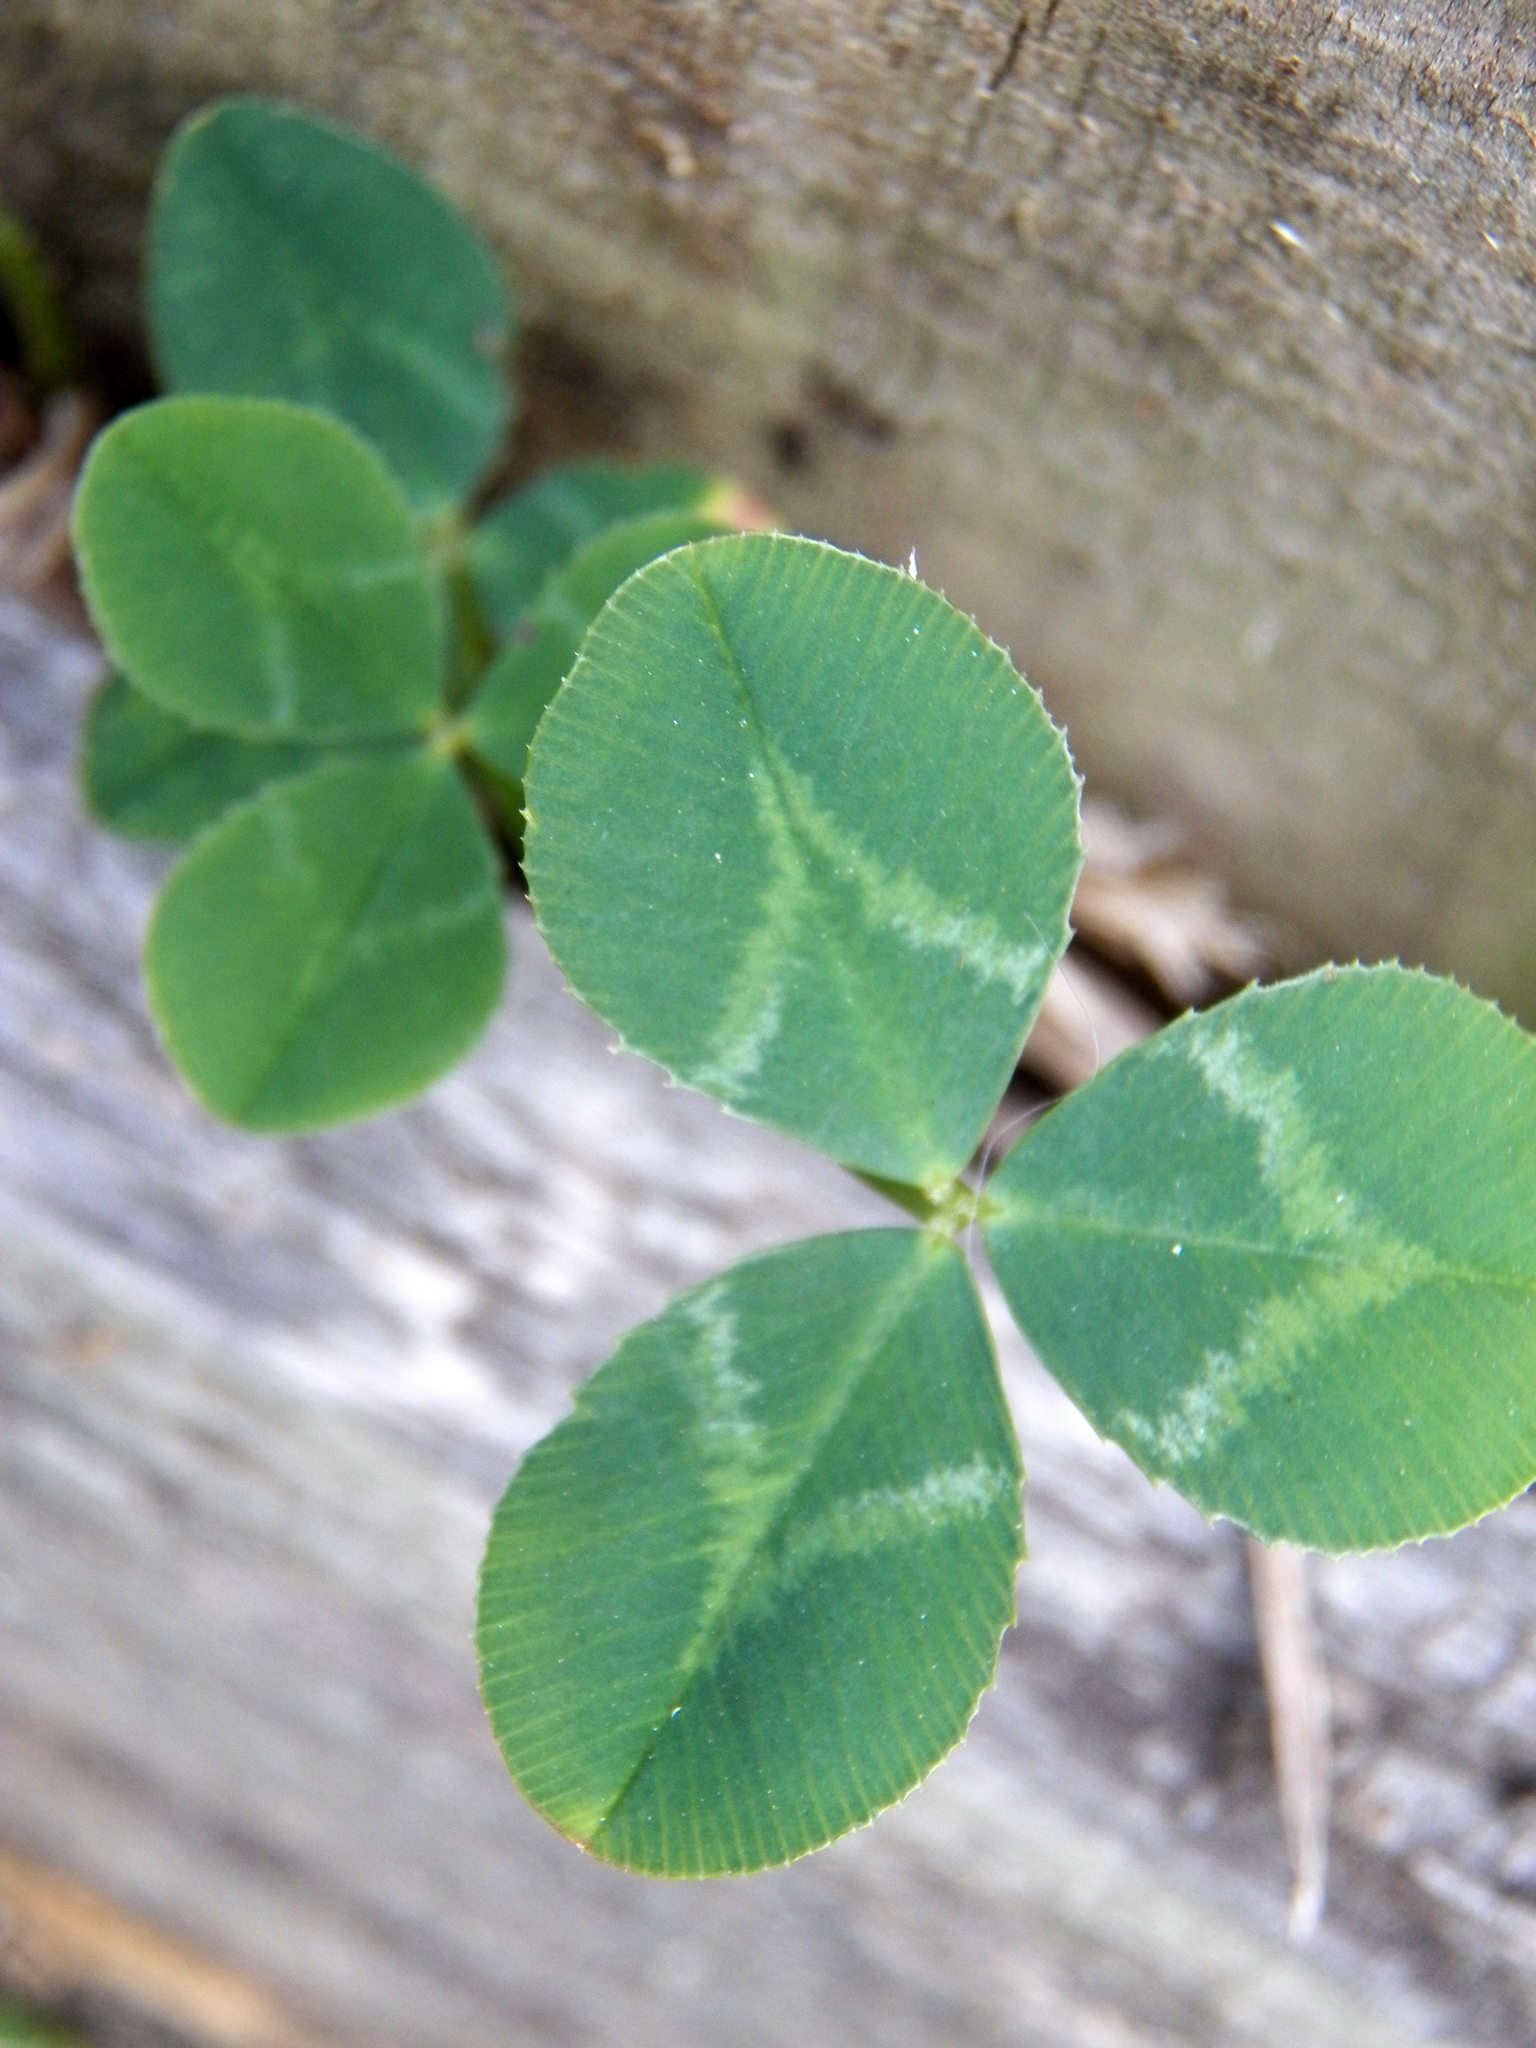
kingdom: Plantae
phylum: Tracheophyta
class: Magnoliopsida
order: Fabales
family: Fabaceae
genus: Trifolium
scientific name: Trifolium repens
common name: White clover
